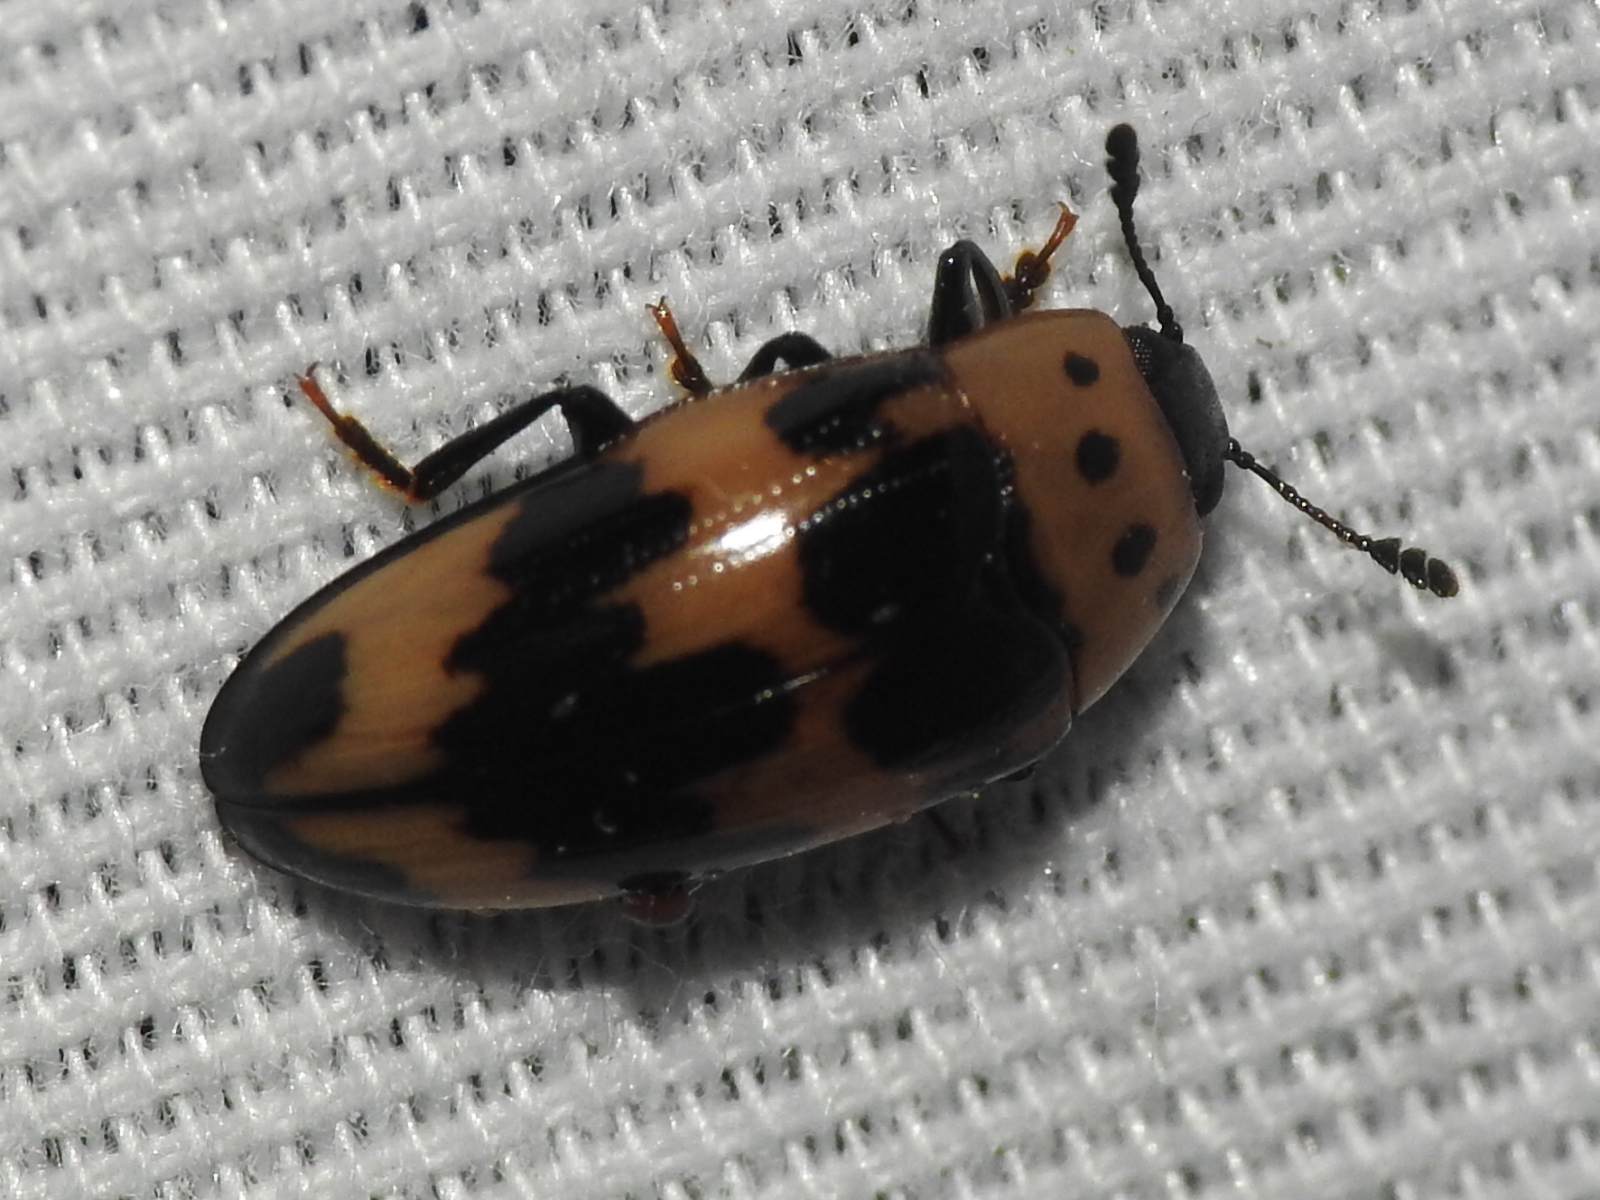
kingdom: Animalia
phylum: Arthropoda
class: Insecta
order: Coleoptera
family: Erotylidae
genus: Ischyrus
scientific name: Ischyrus quadripunctatus
